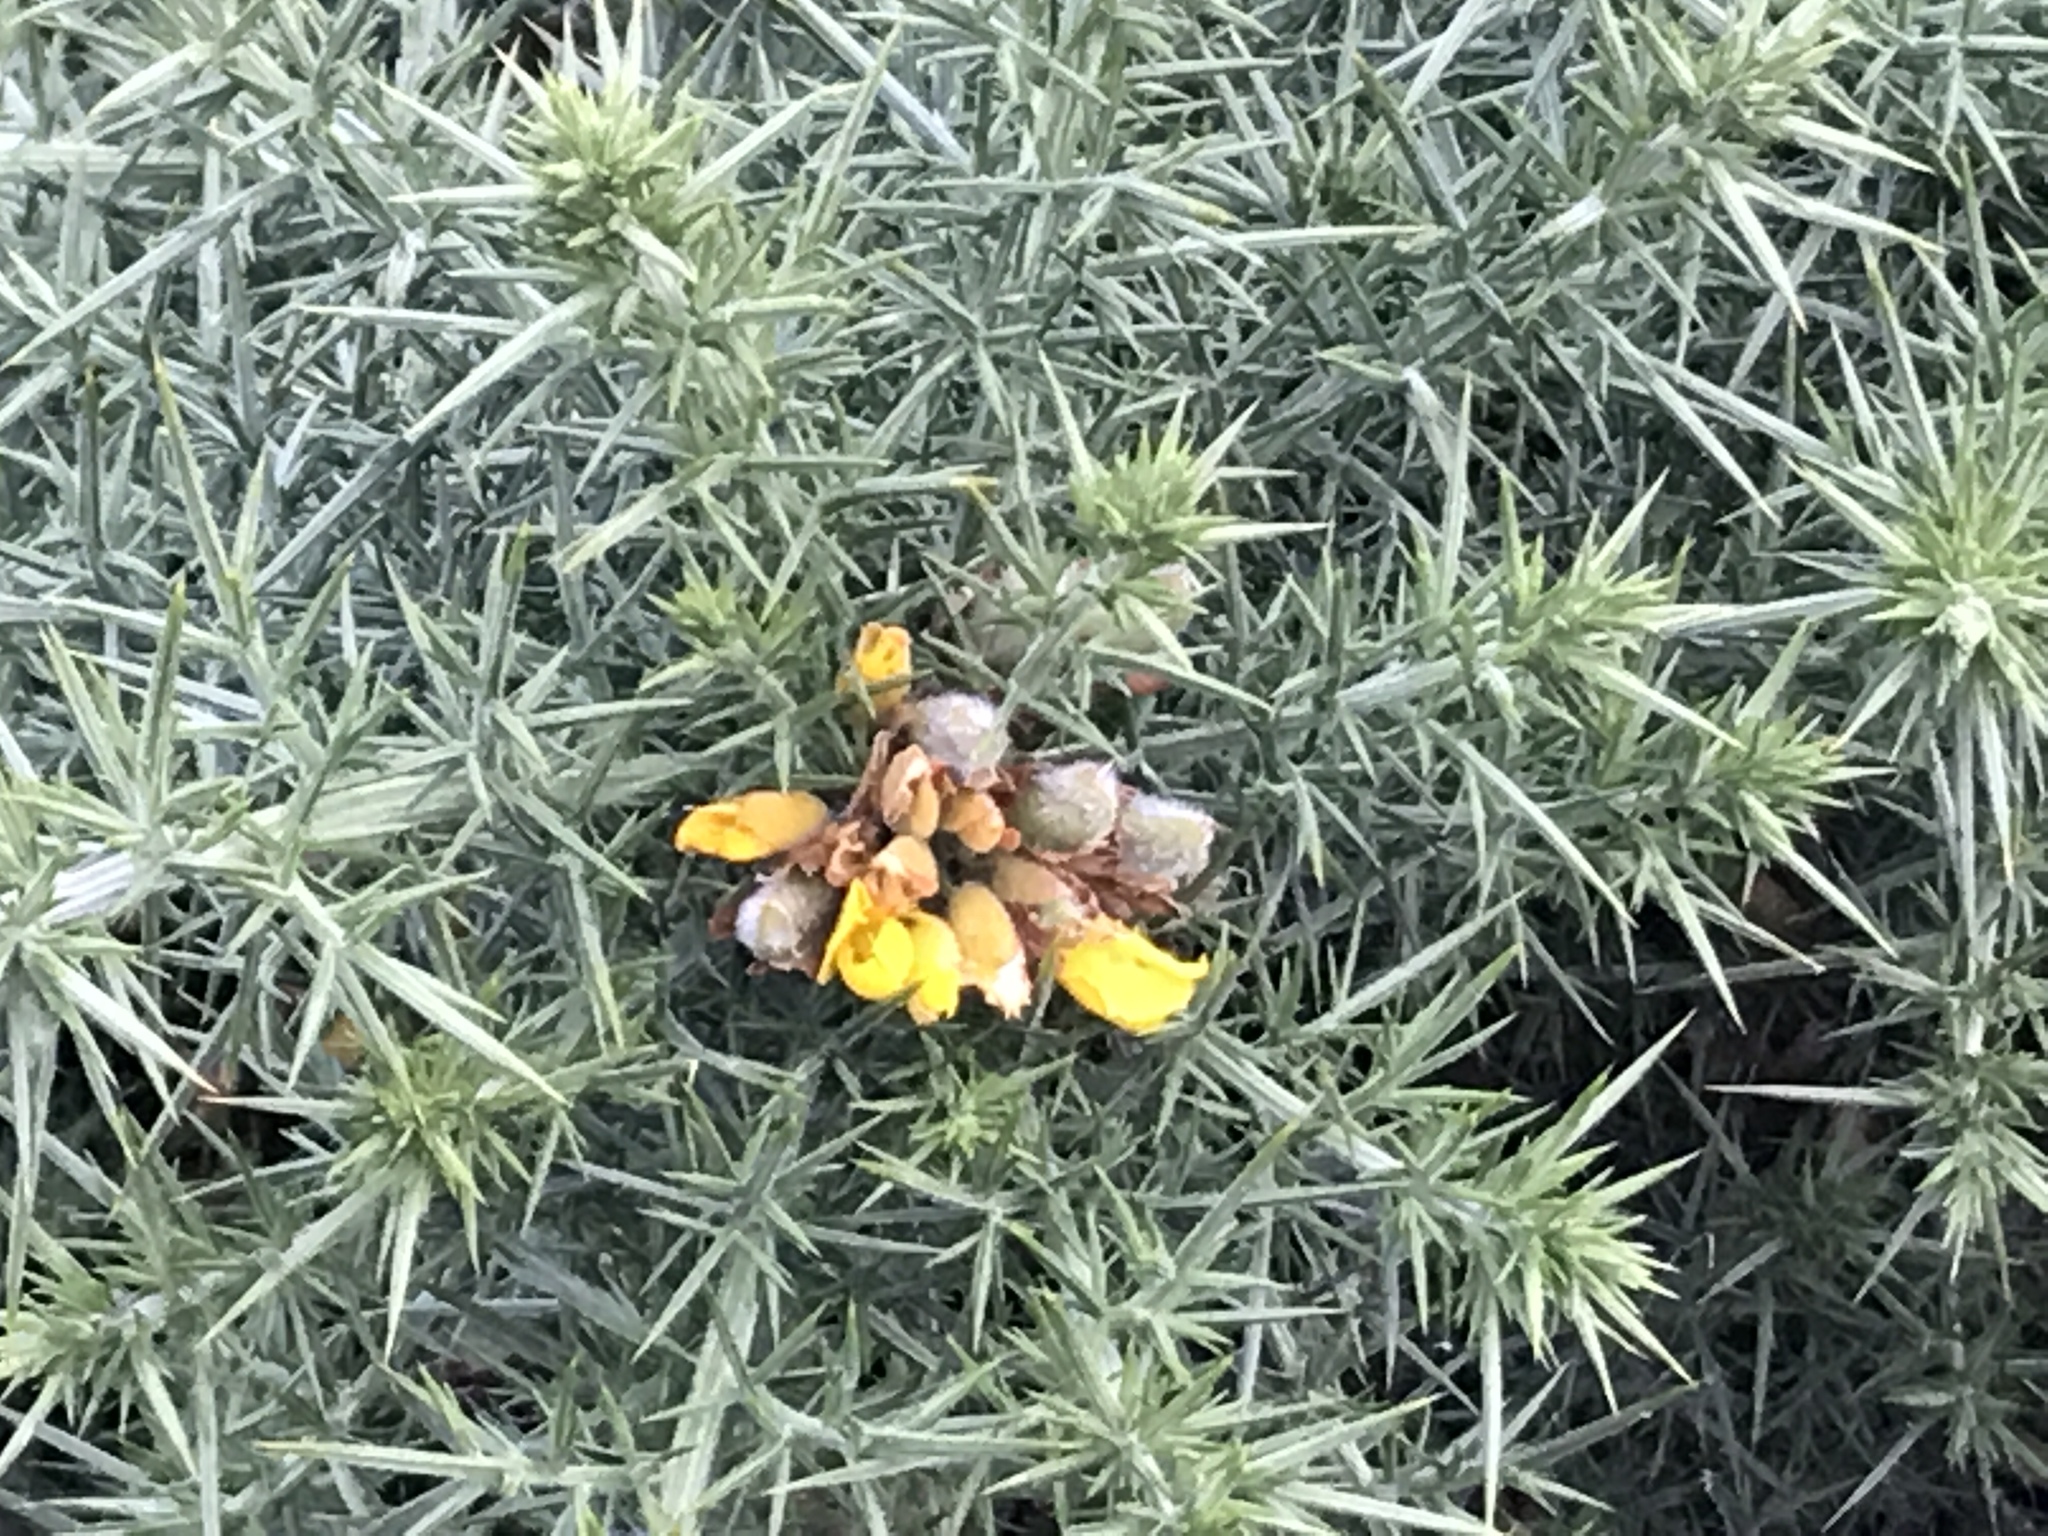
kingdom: Plantae
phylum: Tracheophyta
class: Magnoliopsida
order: Fabales
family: Fabaceae
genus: Ulex
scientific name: Ulex europaeus
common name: Common gorse
